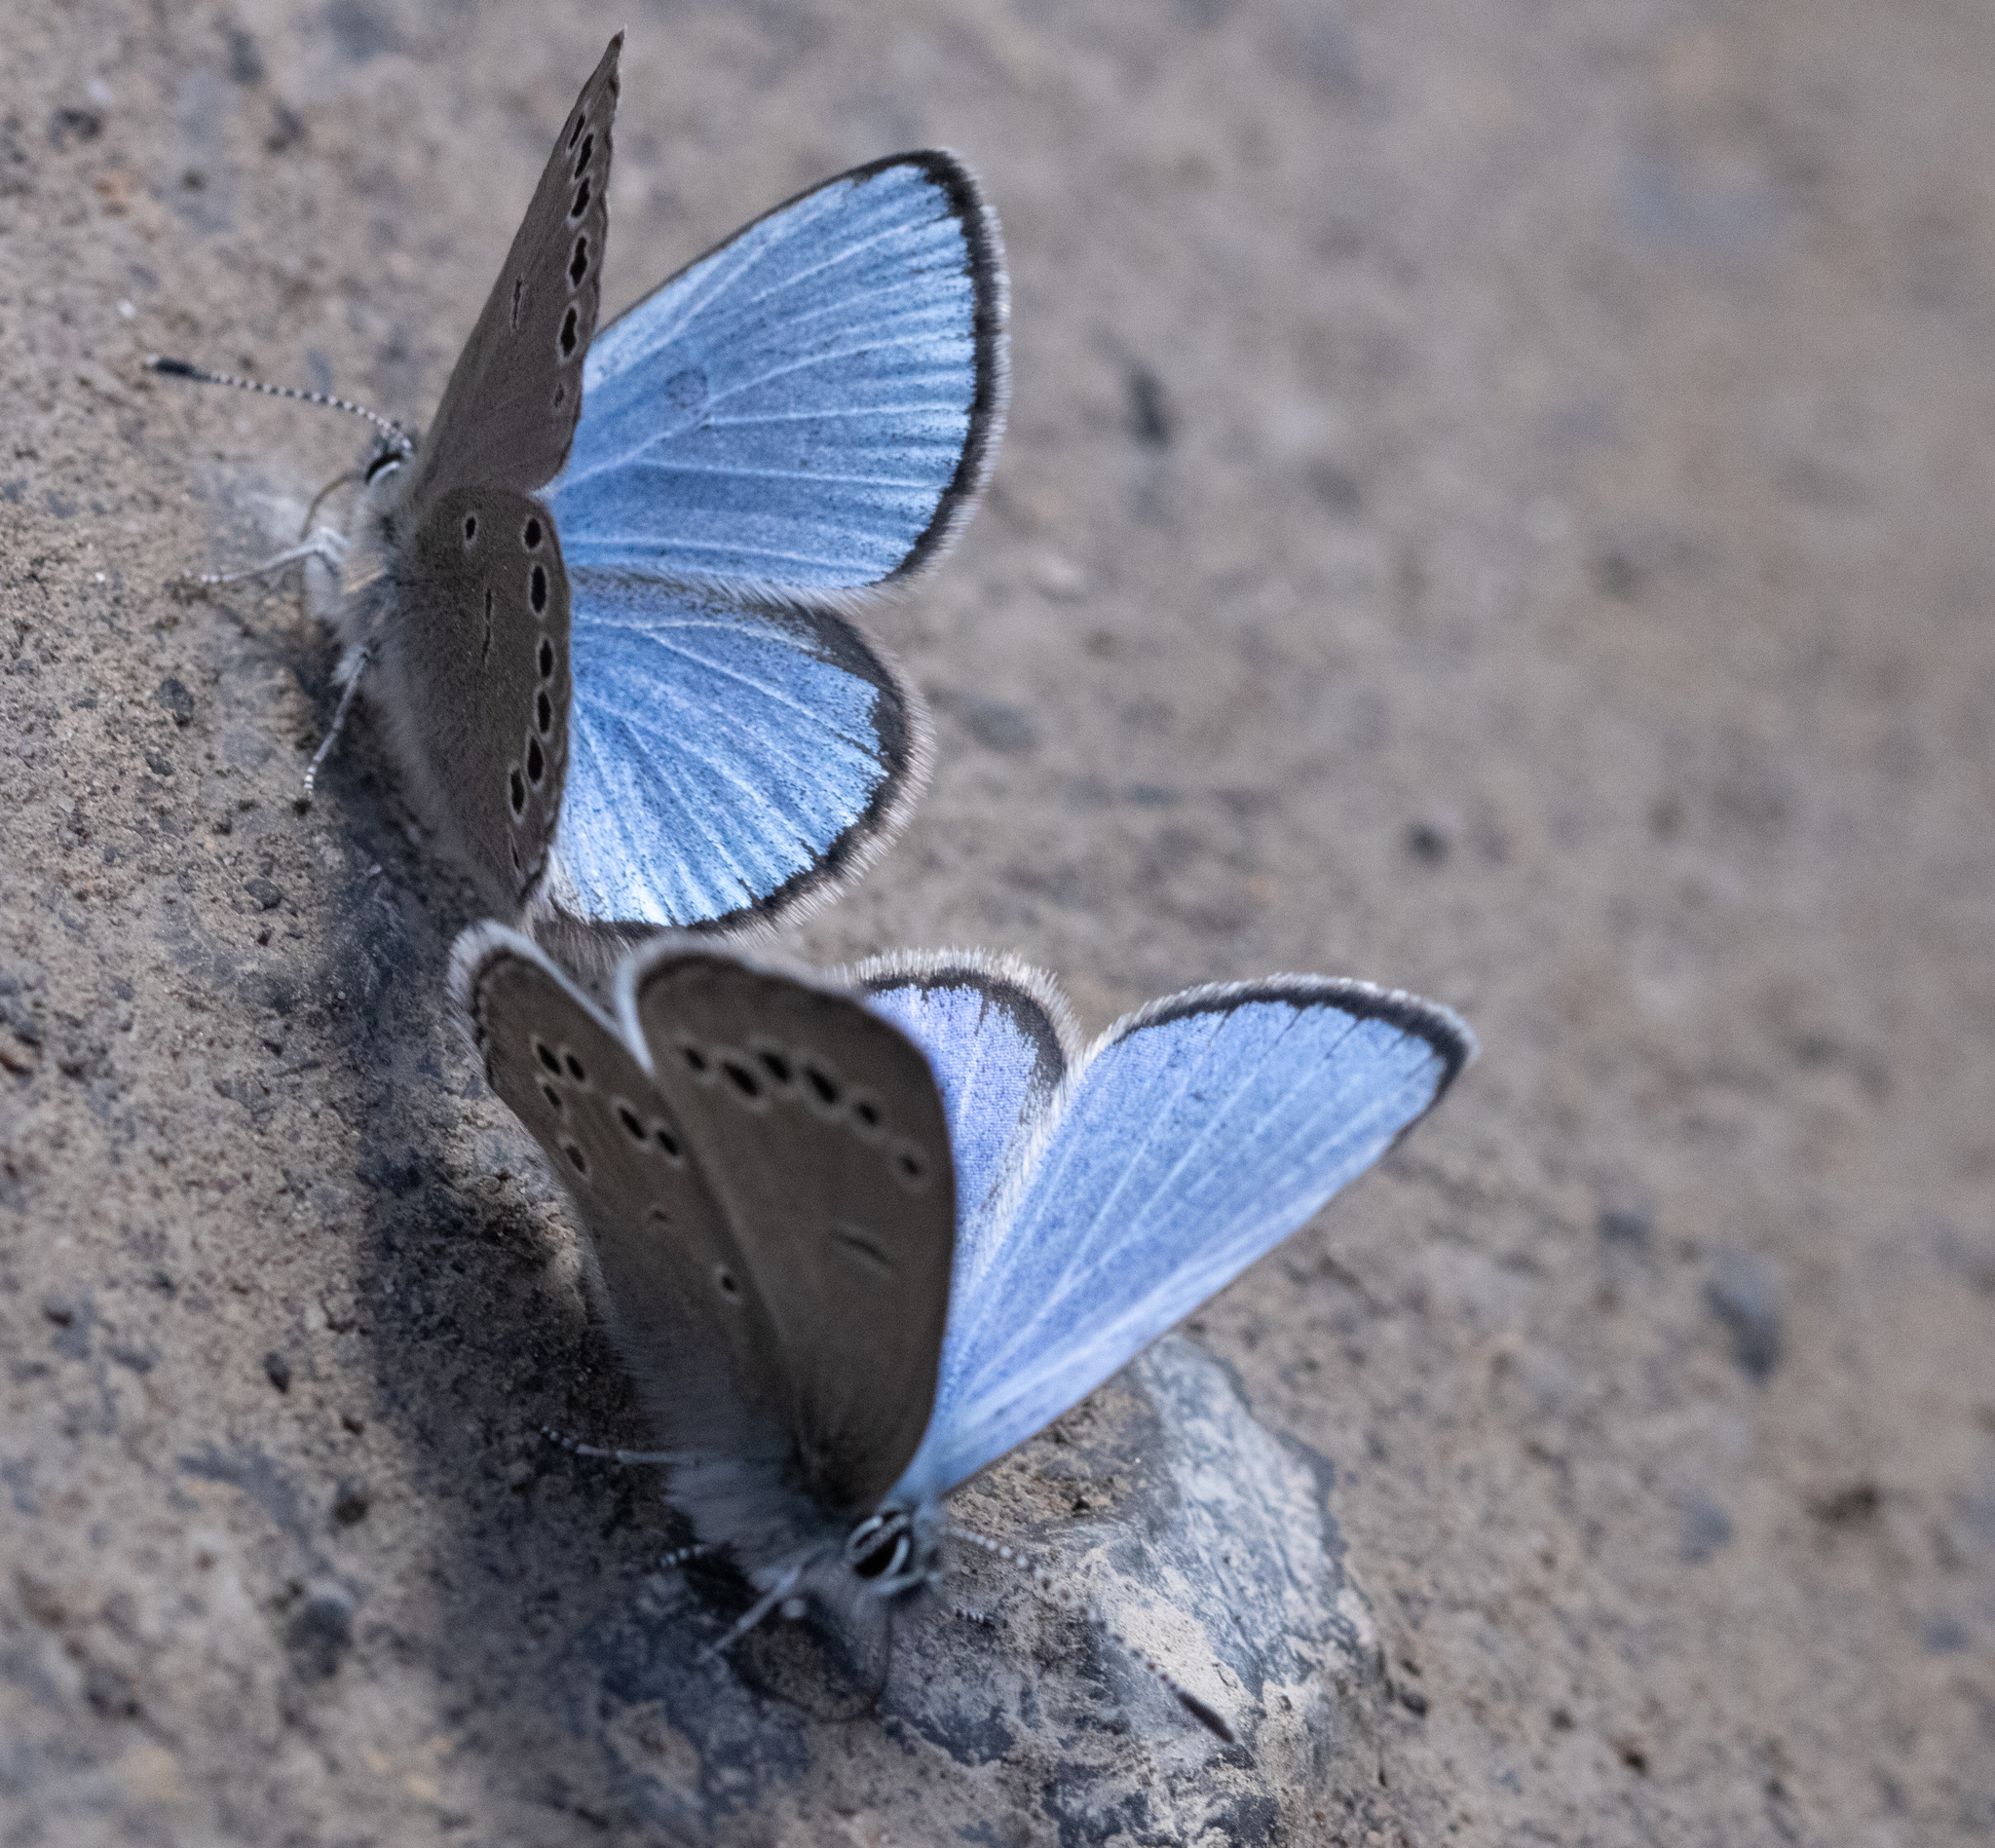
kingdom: Animalia
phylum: Arthropoda
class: Insecta
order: Lepidoptera
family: Lycaenidae
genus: Glaucopsyche
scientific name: Glaucopsyche lygdamus
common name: Silvery blue
